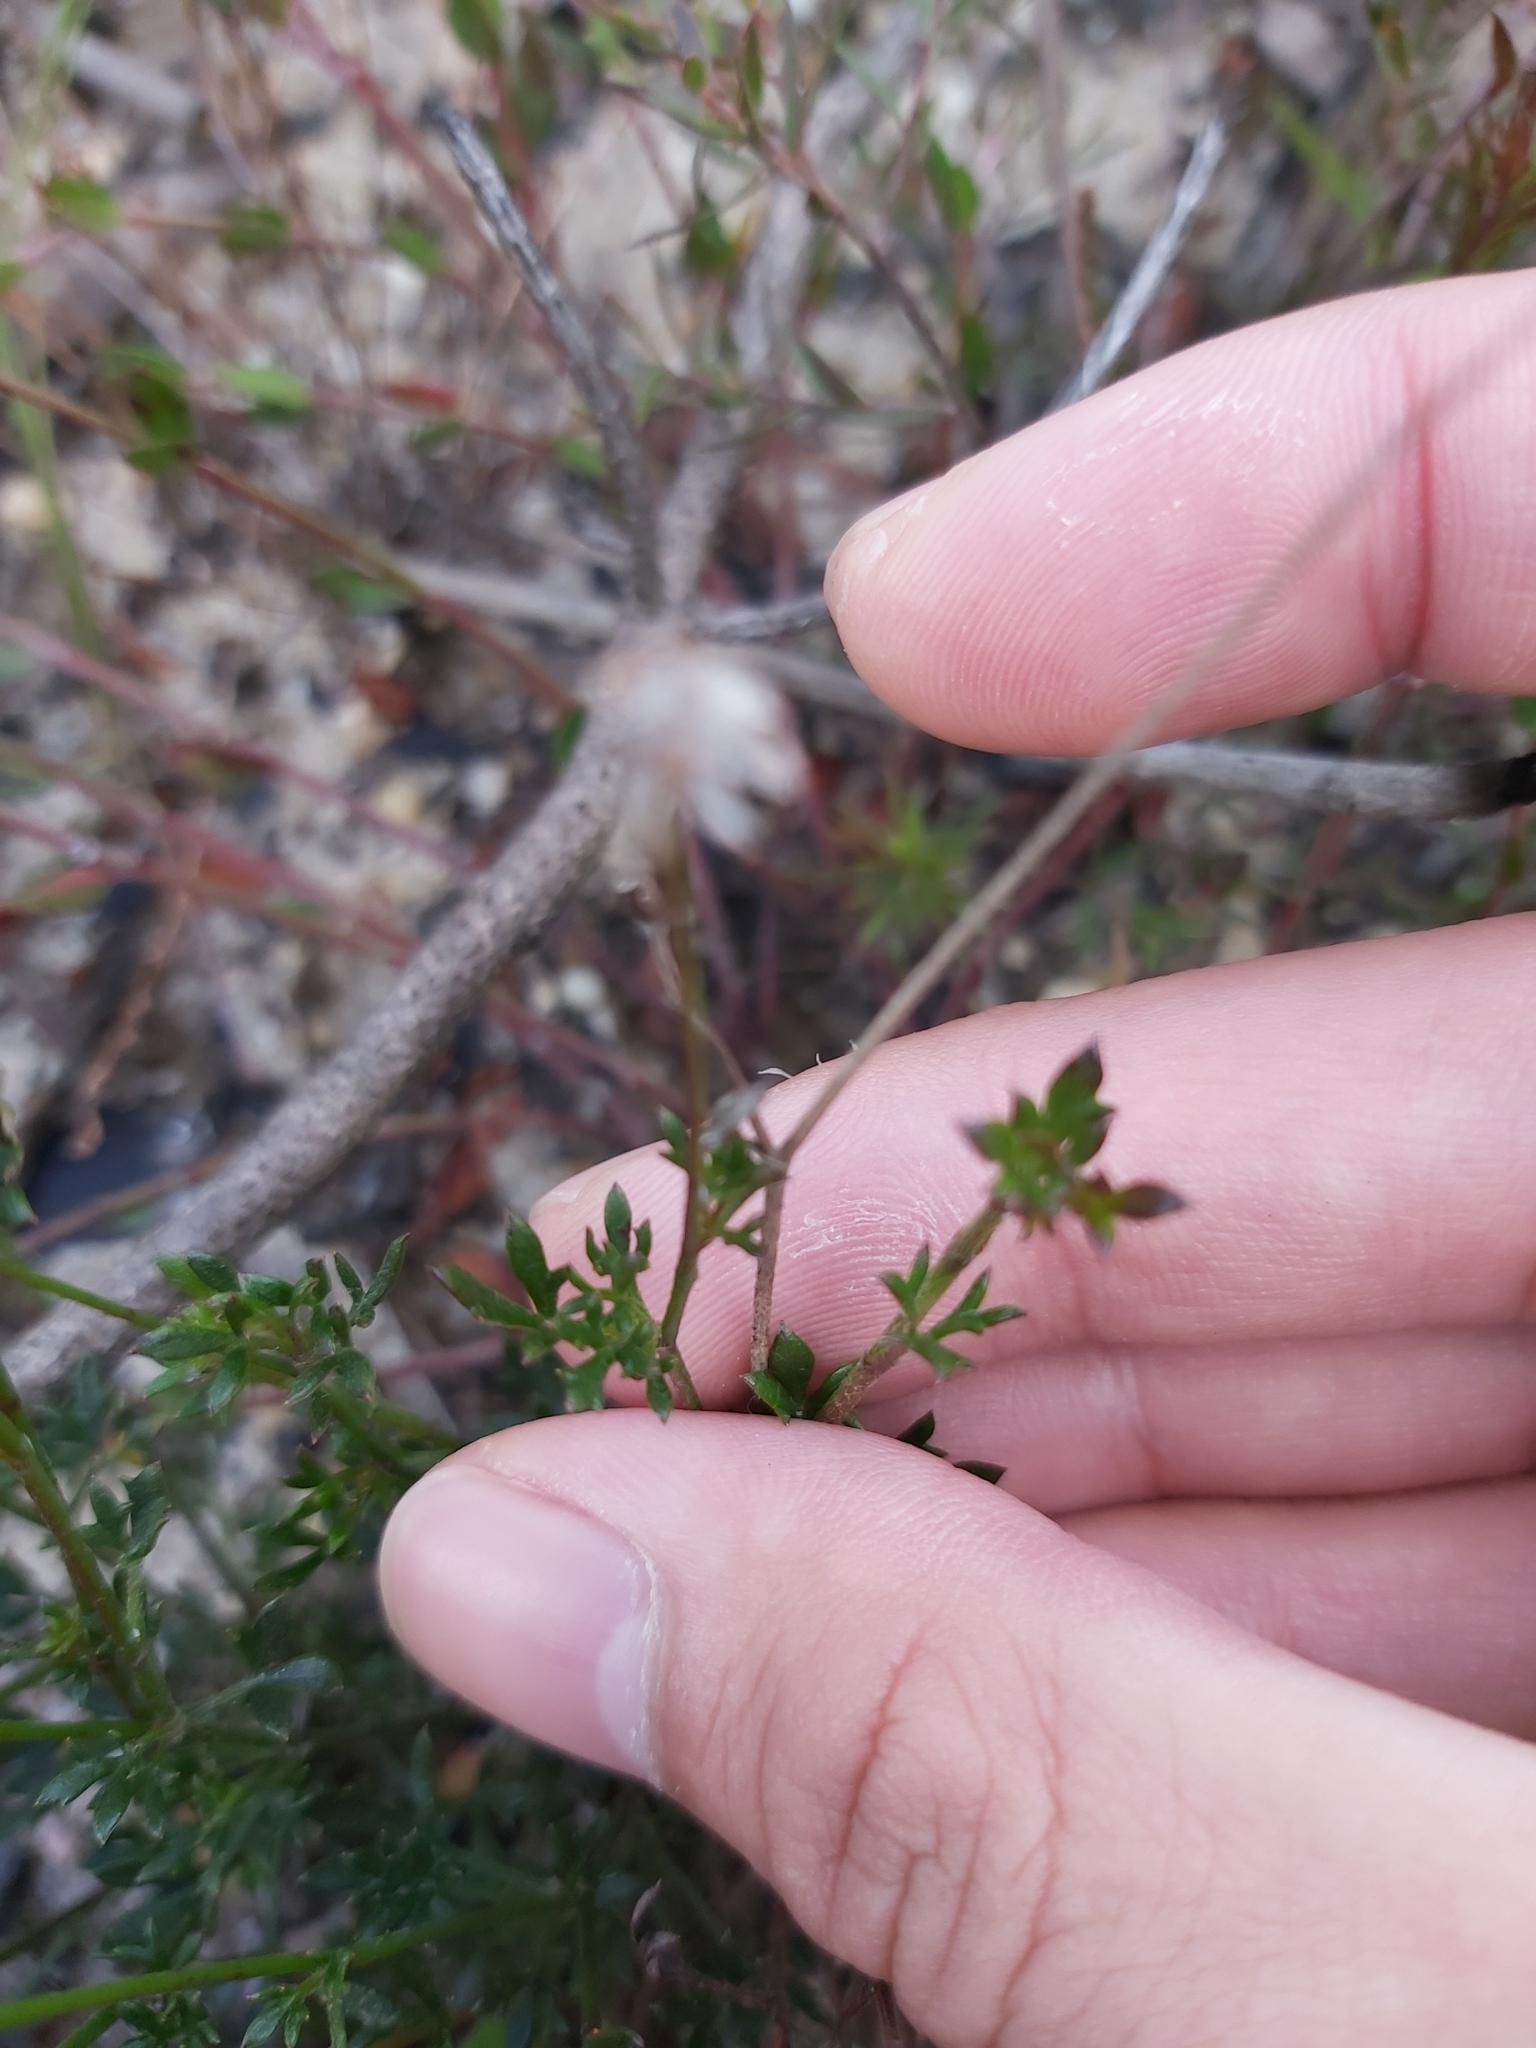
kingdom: Plantae
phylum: Tracheophyta
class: Magnoliopsida
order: Apiales
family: Apiaceae
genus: Actinotus
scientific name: Actinotus minor
